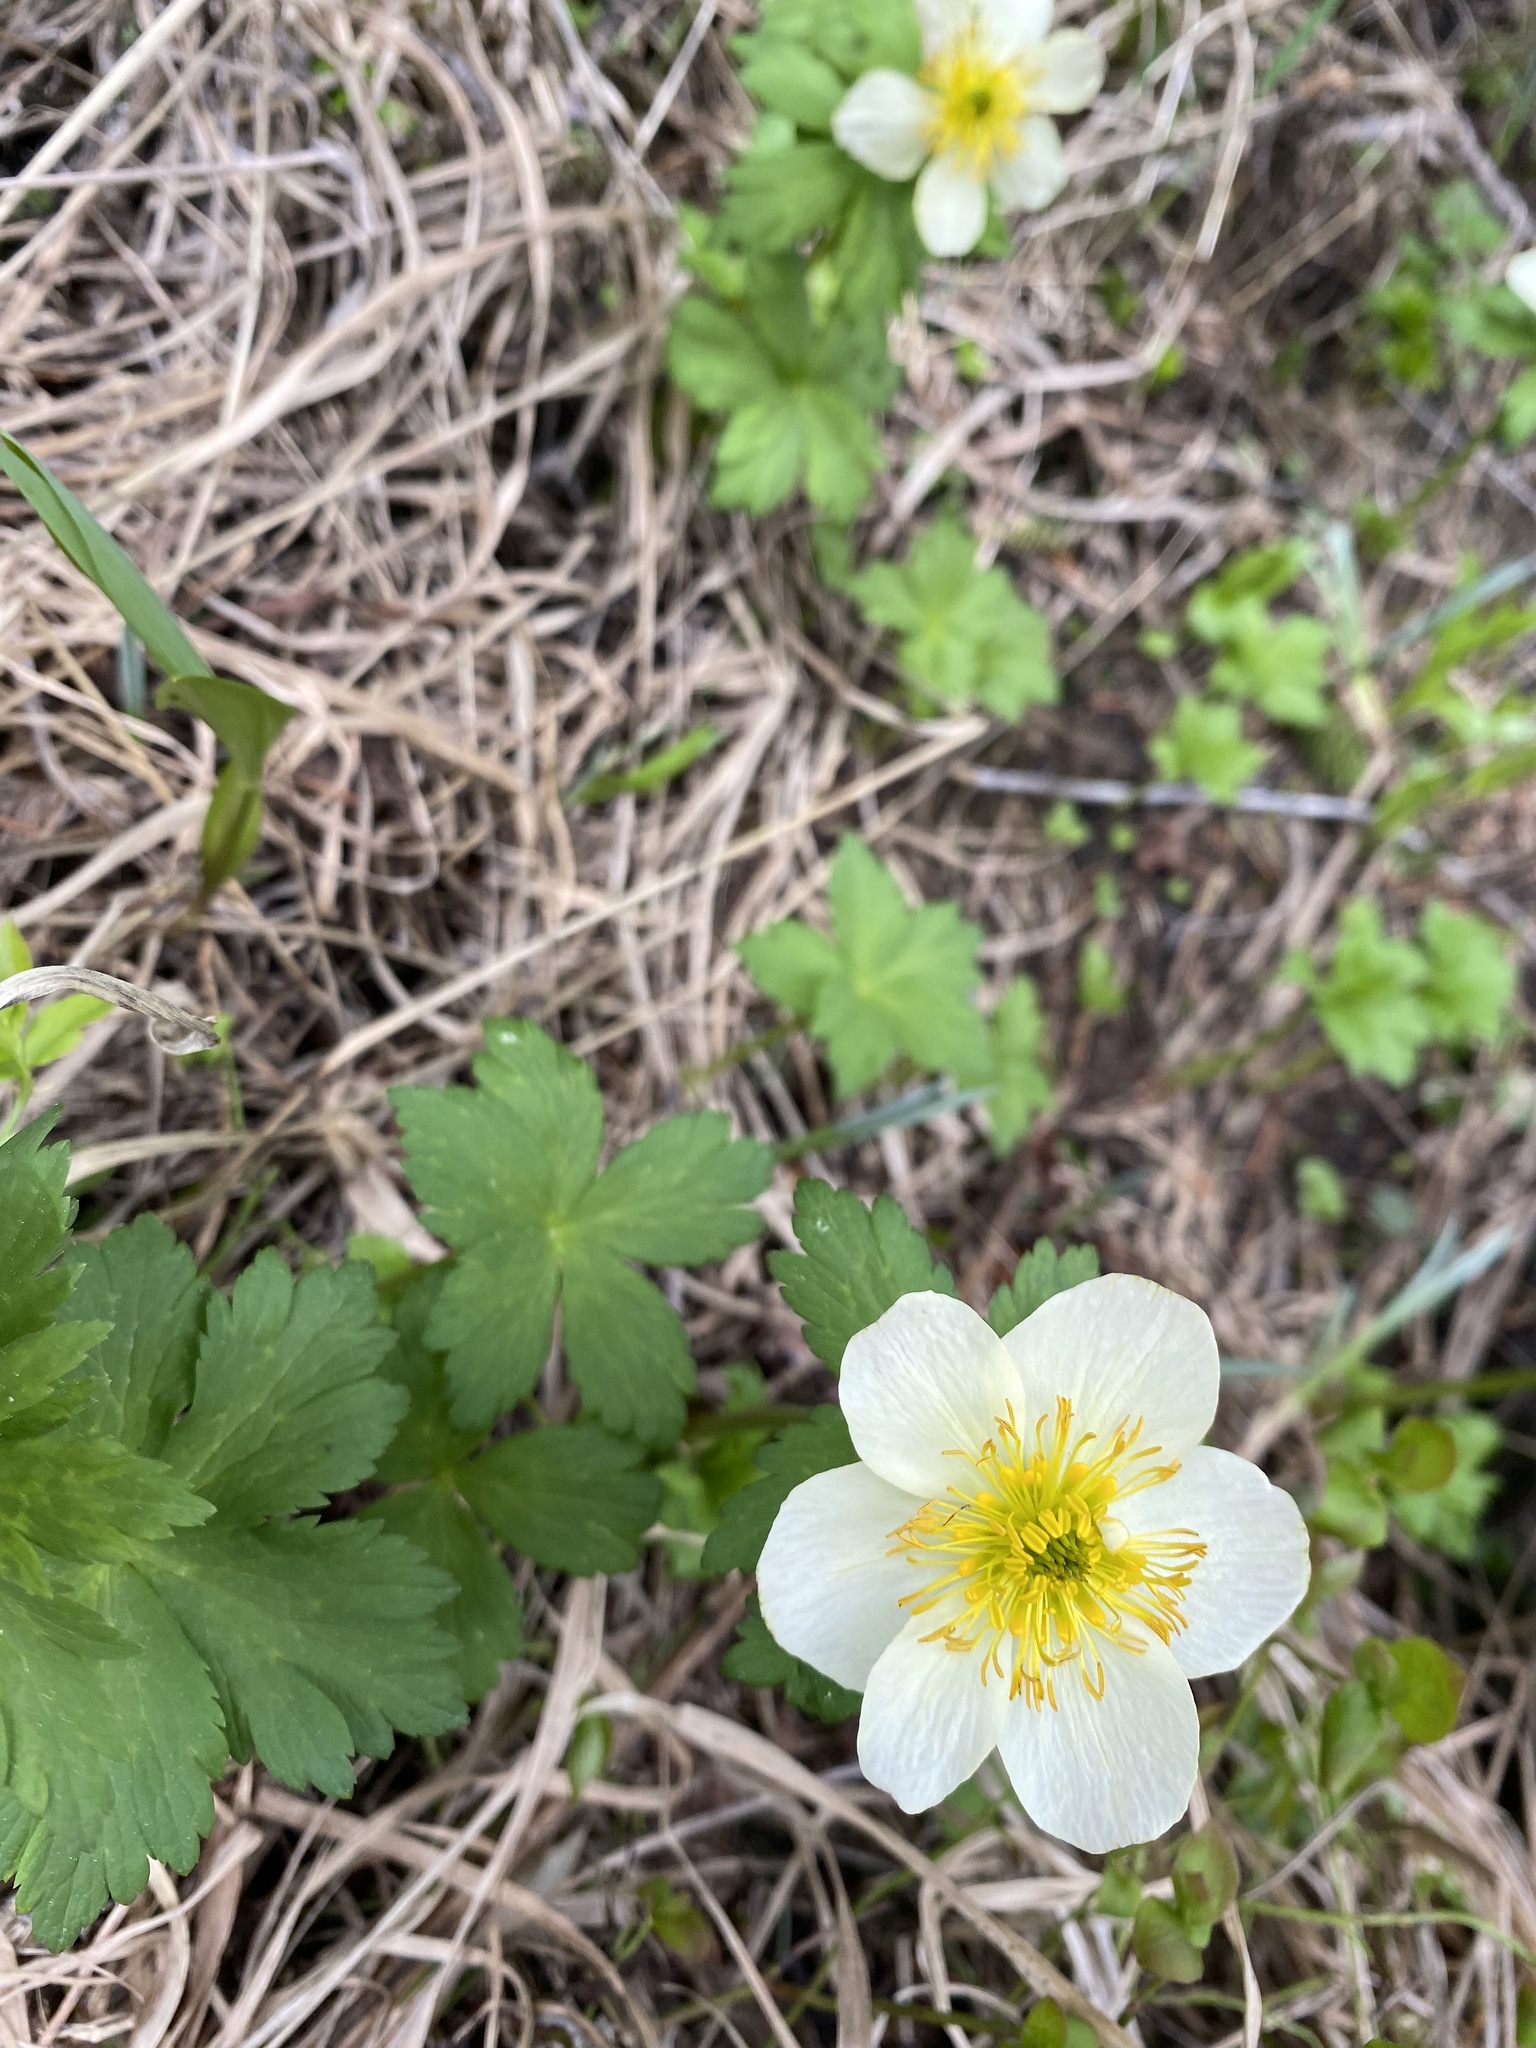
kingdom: Plantae
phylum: Tracheophyta
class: Magnoliopsida
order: Ranunculales
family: Ranunculaceae
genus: Trollius
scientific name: Trollius laxus
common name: American globeflower
